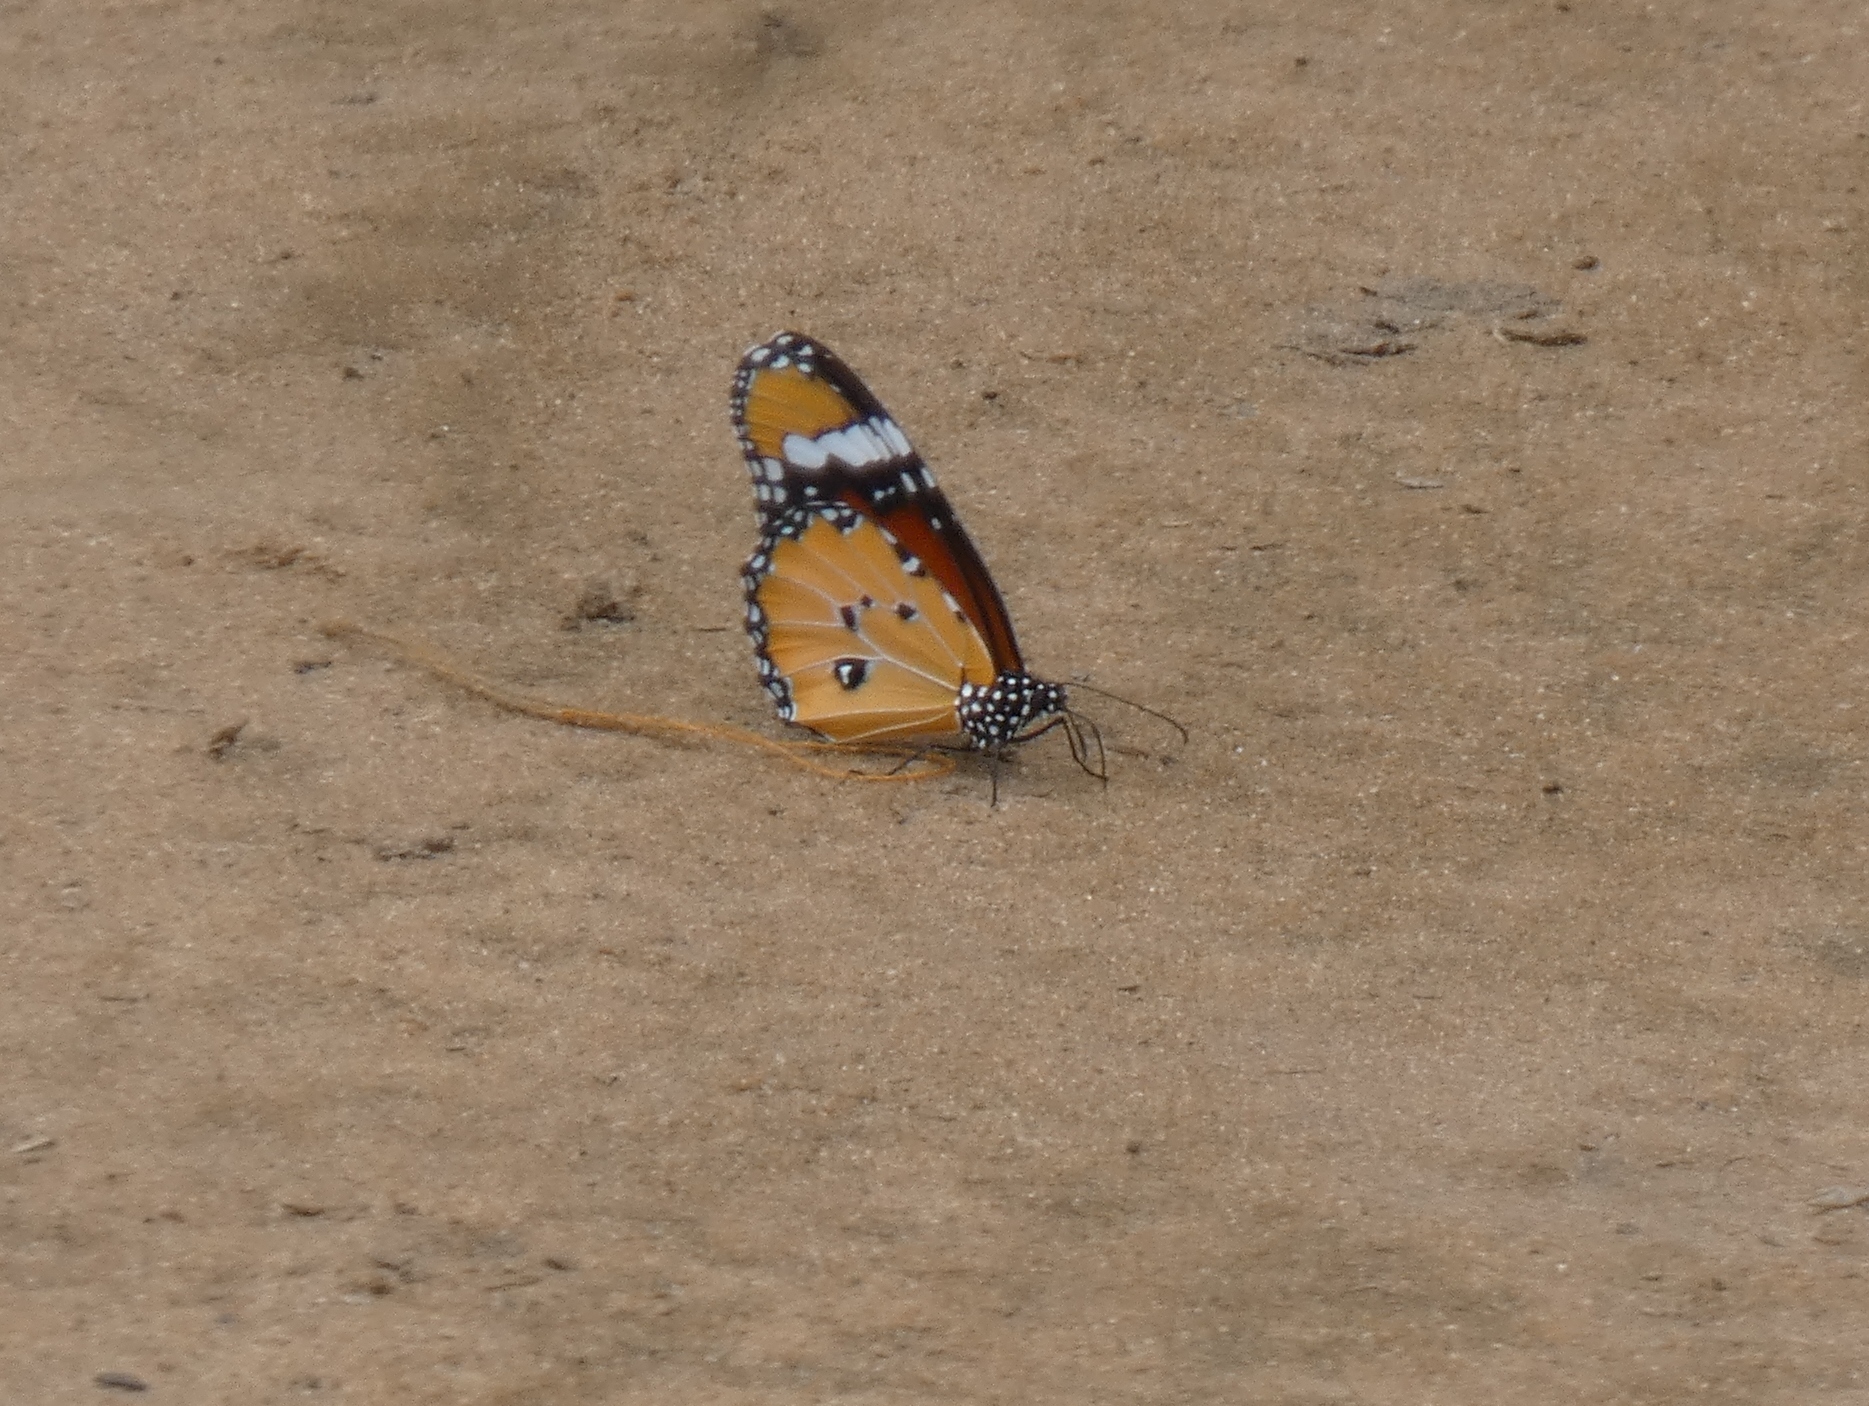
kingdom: Animalia
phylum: Arthropoda
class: Insecta
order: Lepidoptera
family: Nymphalidae
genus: Danaus
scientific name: Danaus chrysippus
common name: Plain tiger
